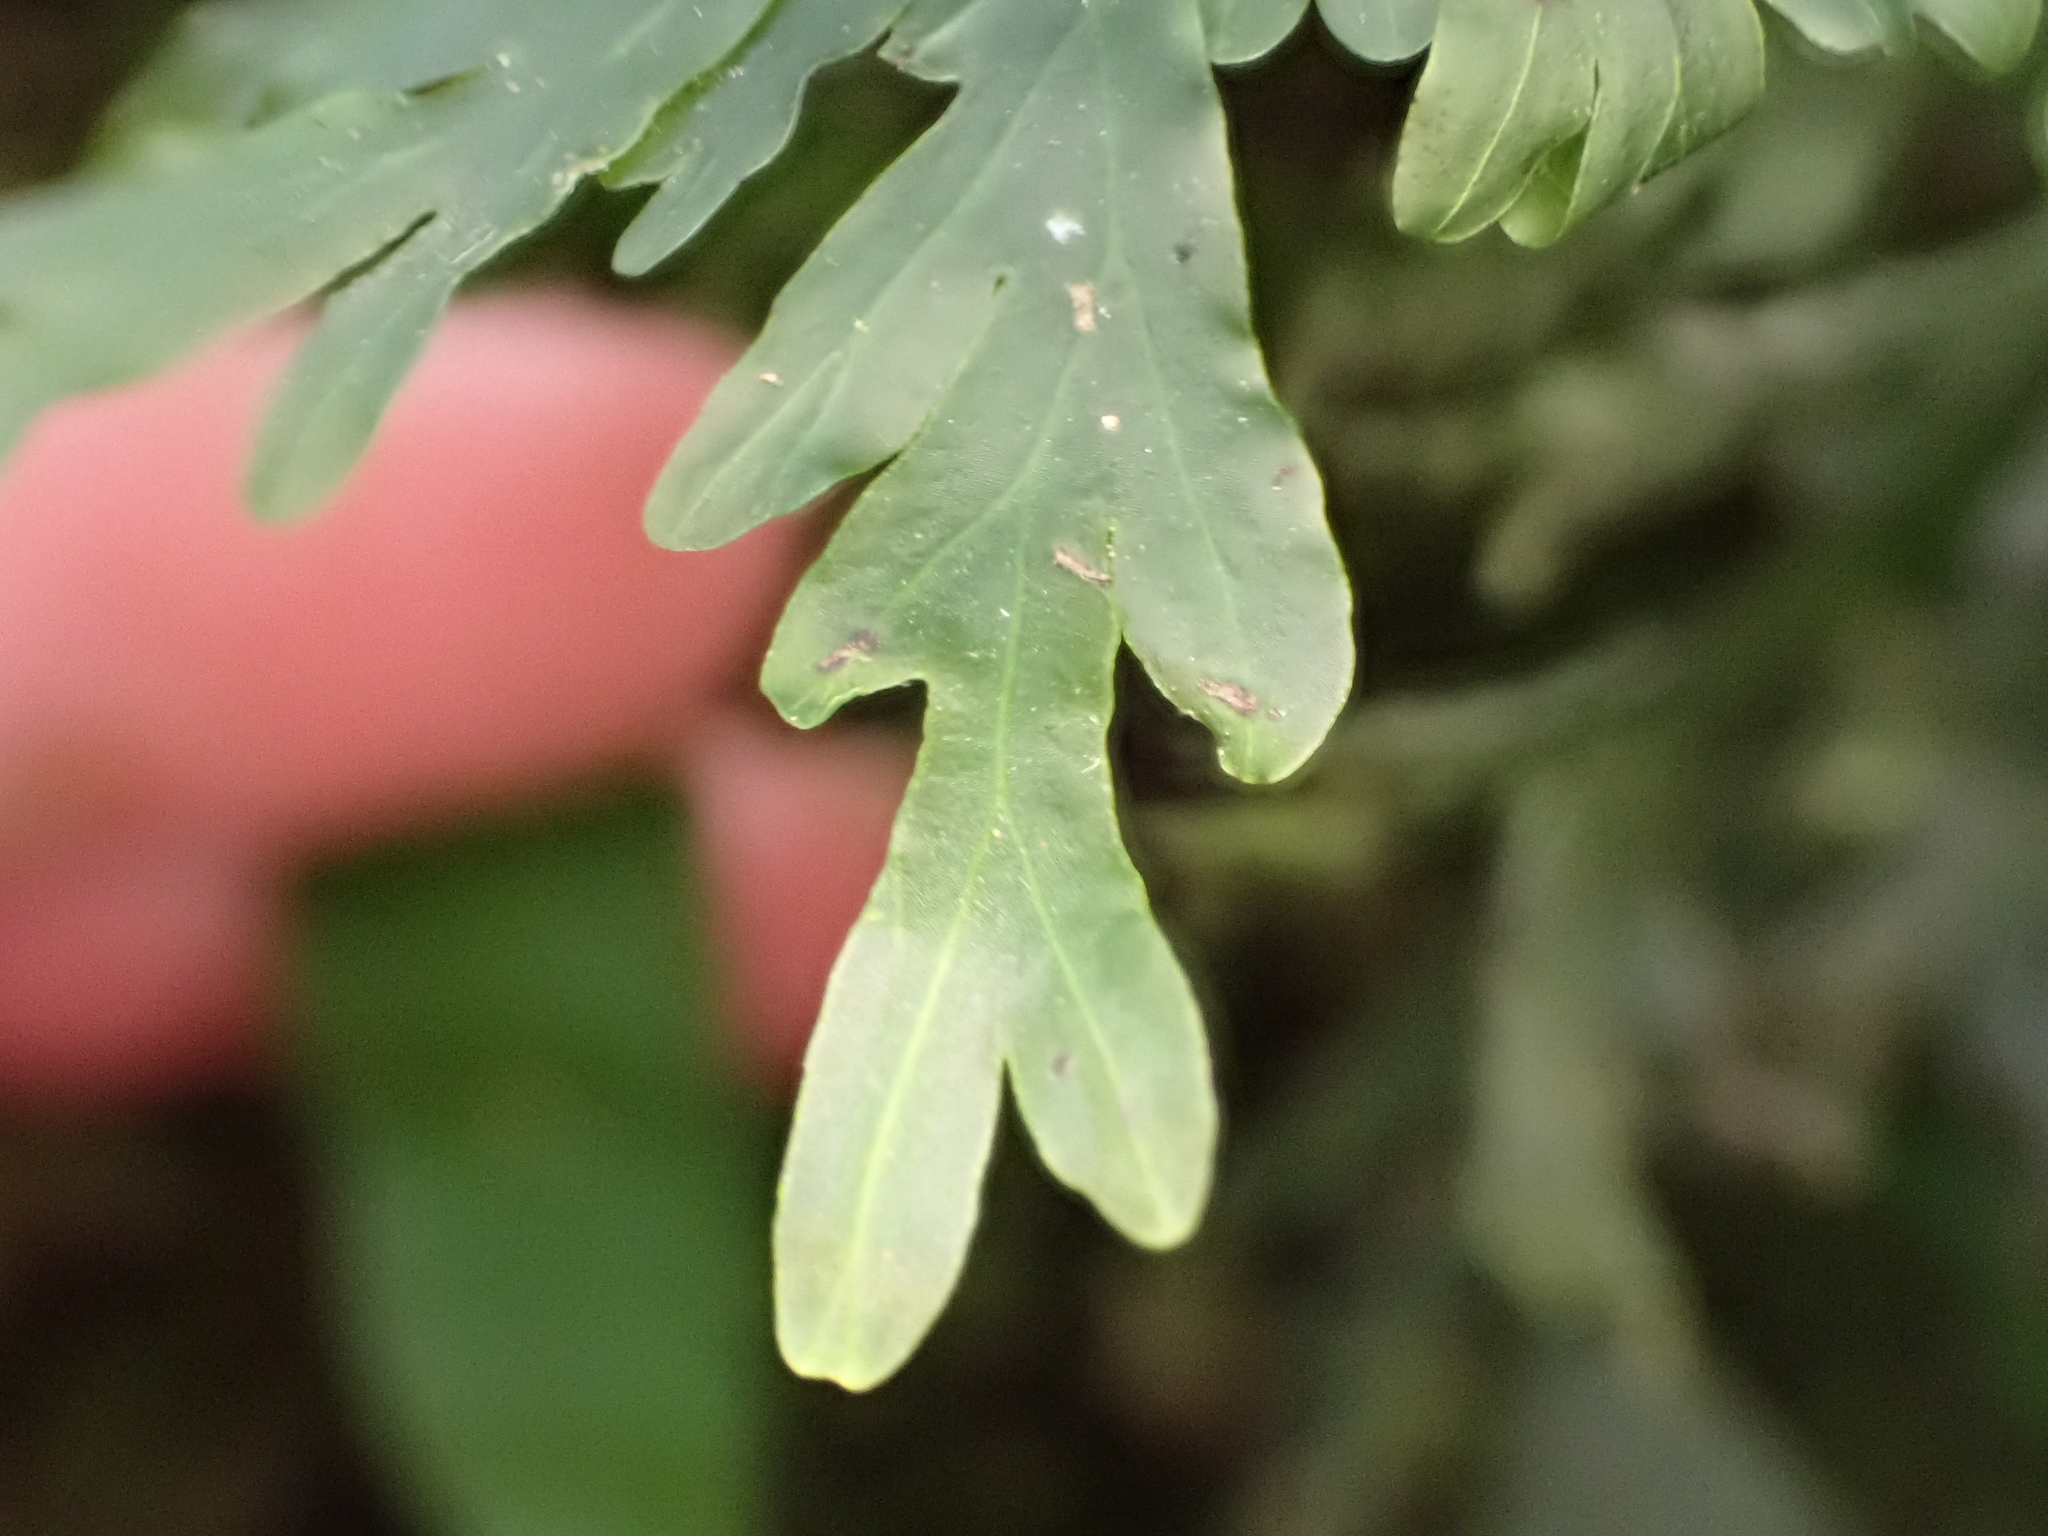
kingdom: Plantae
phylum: Tracheophyta
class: Polypodiopsida
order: Hymenophyllales
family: Hymenophyllaceae
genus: Hymenophyllum
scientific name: Hymenophyllum dilatatum
